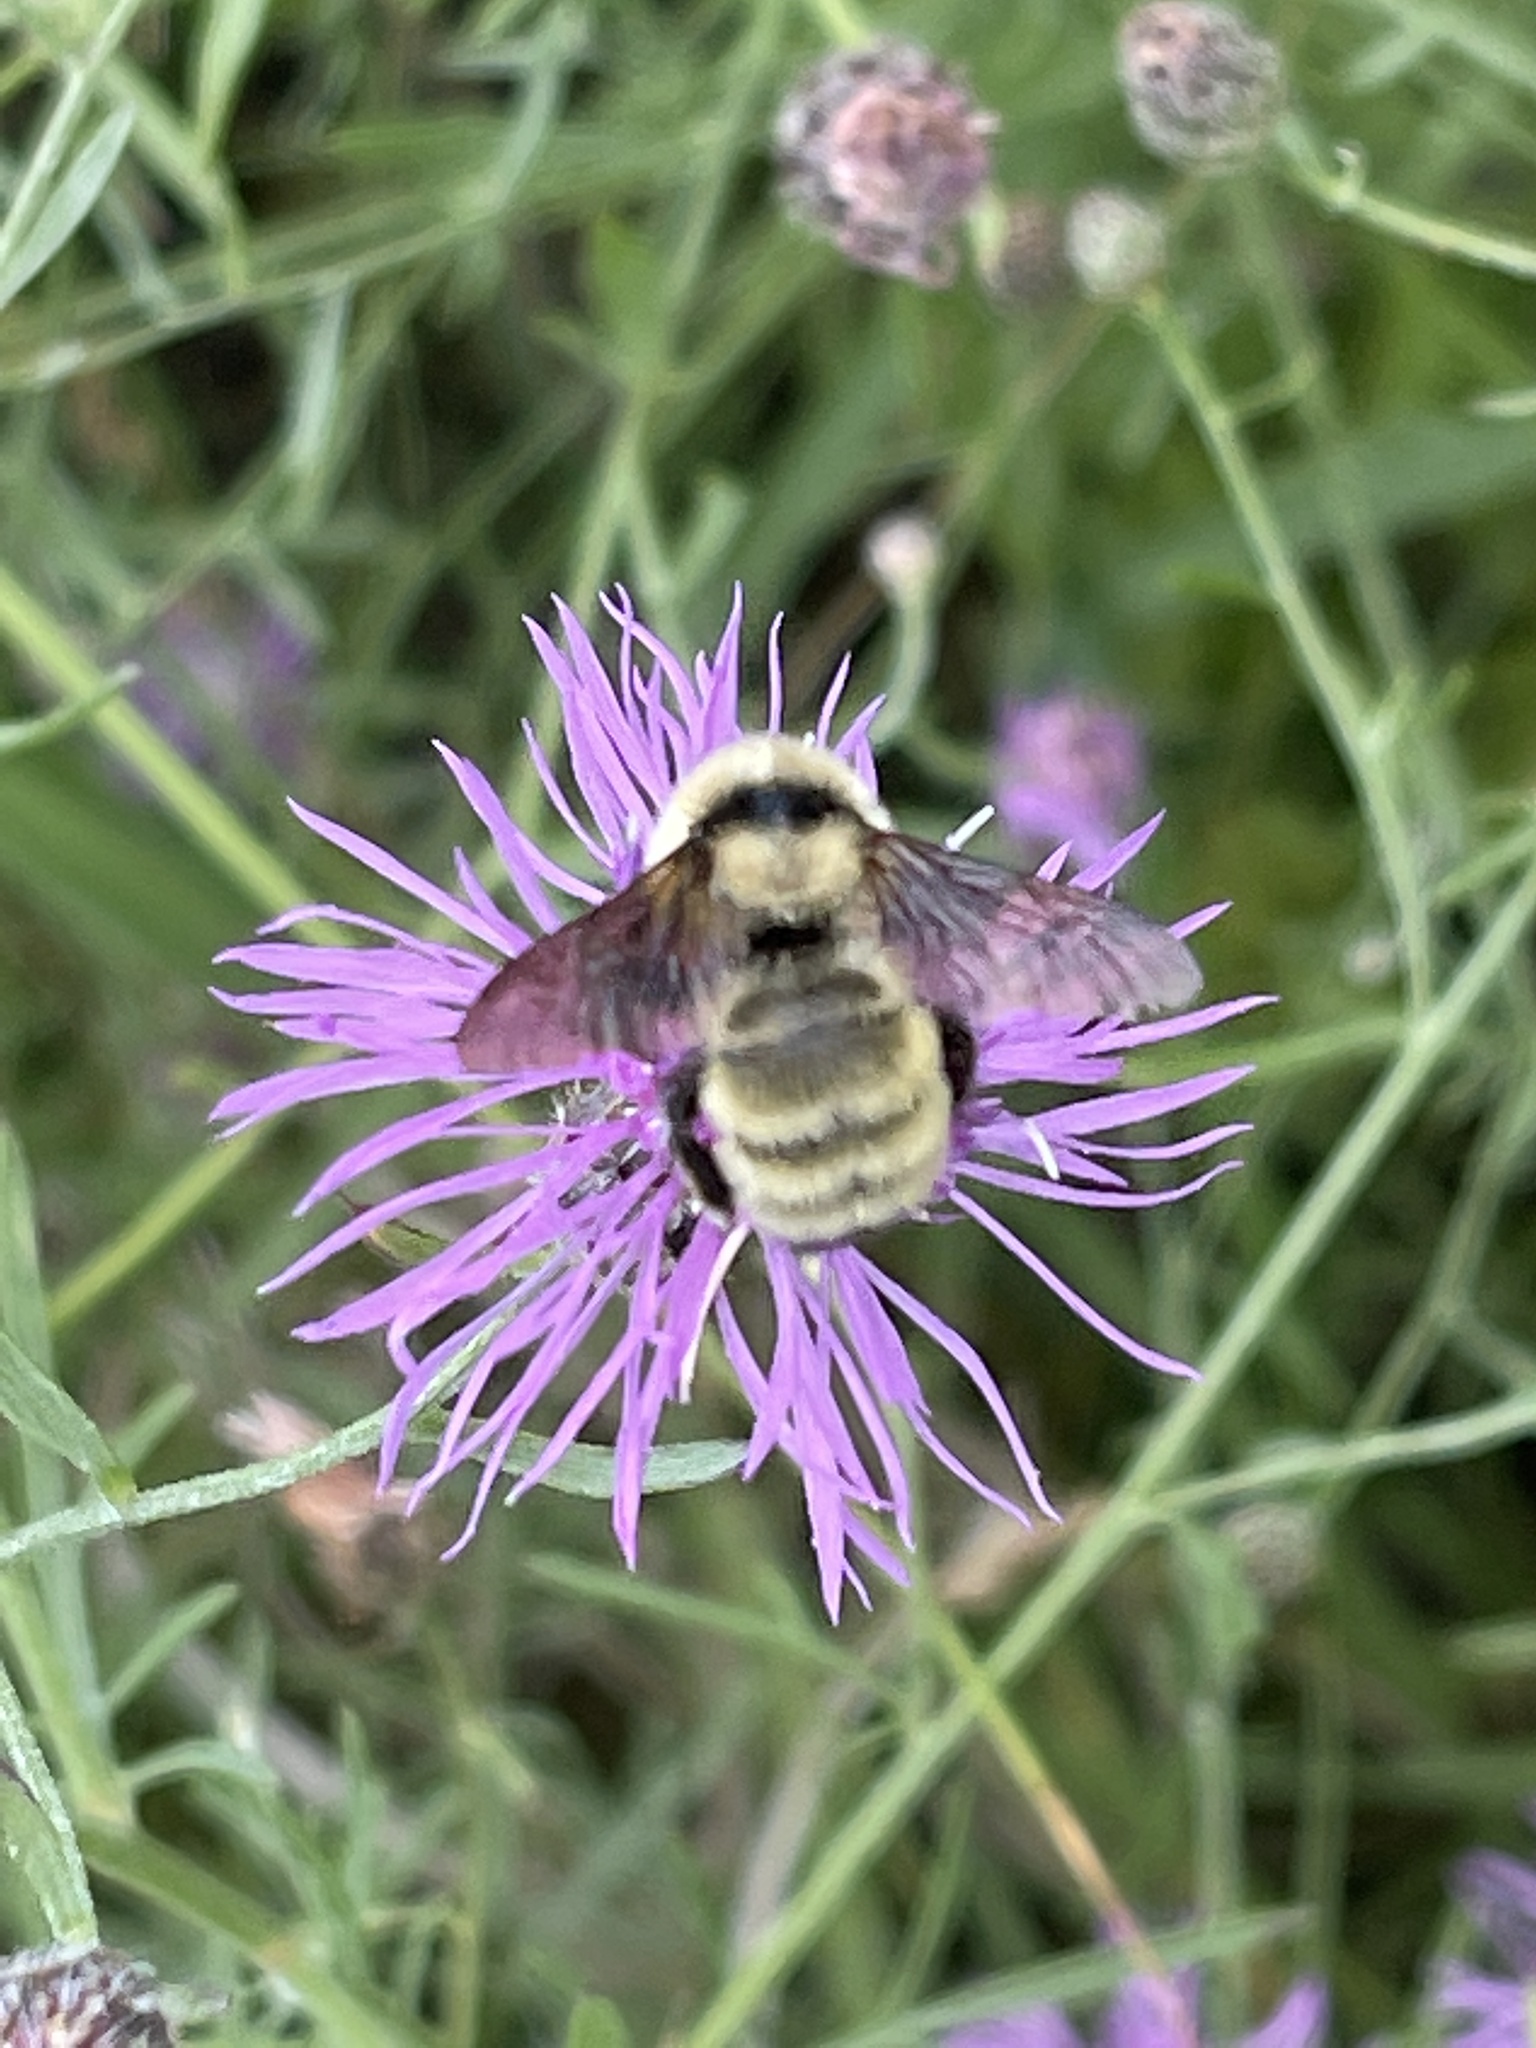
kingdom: Animalia
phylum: Arthropoda
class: Insecta
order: Hymenoptera
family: Apidae
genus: Bombus
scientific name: Bombus fervidus
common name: Yellow bumble bee
